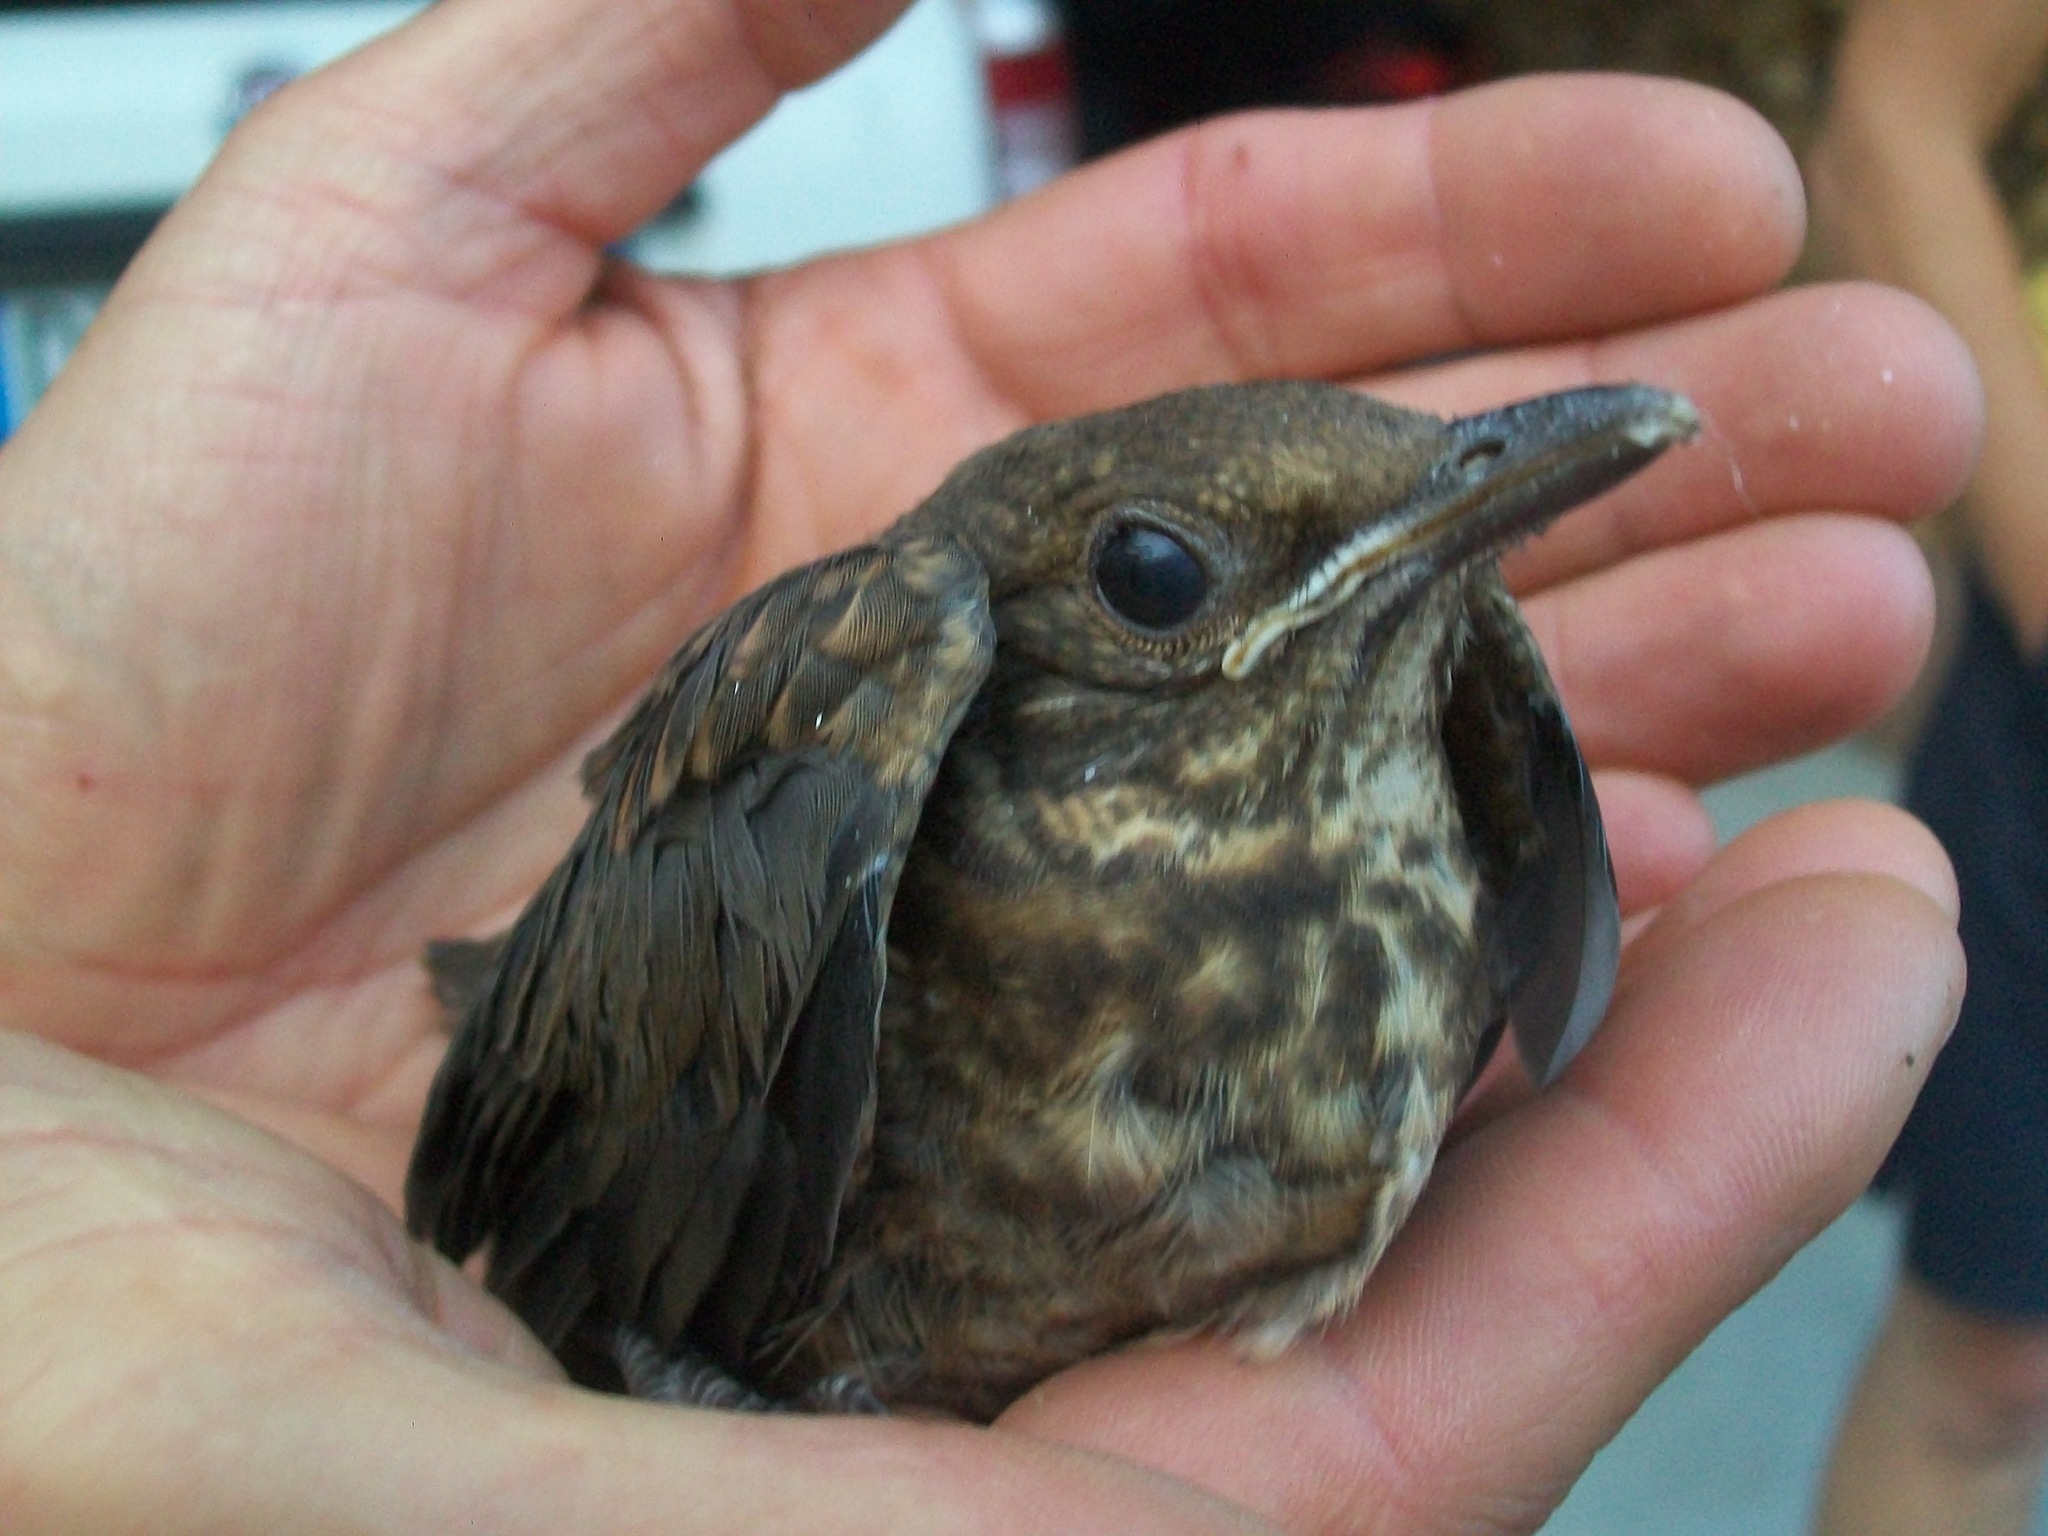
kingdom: Animalia
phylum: Chordata
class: Aves
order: Passeriformes
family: Turdidae
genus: Turdus
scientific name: Turdus merula
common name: Common blackbird
